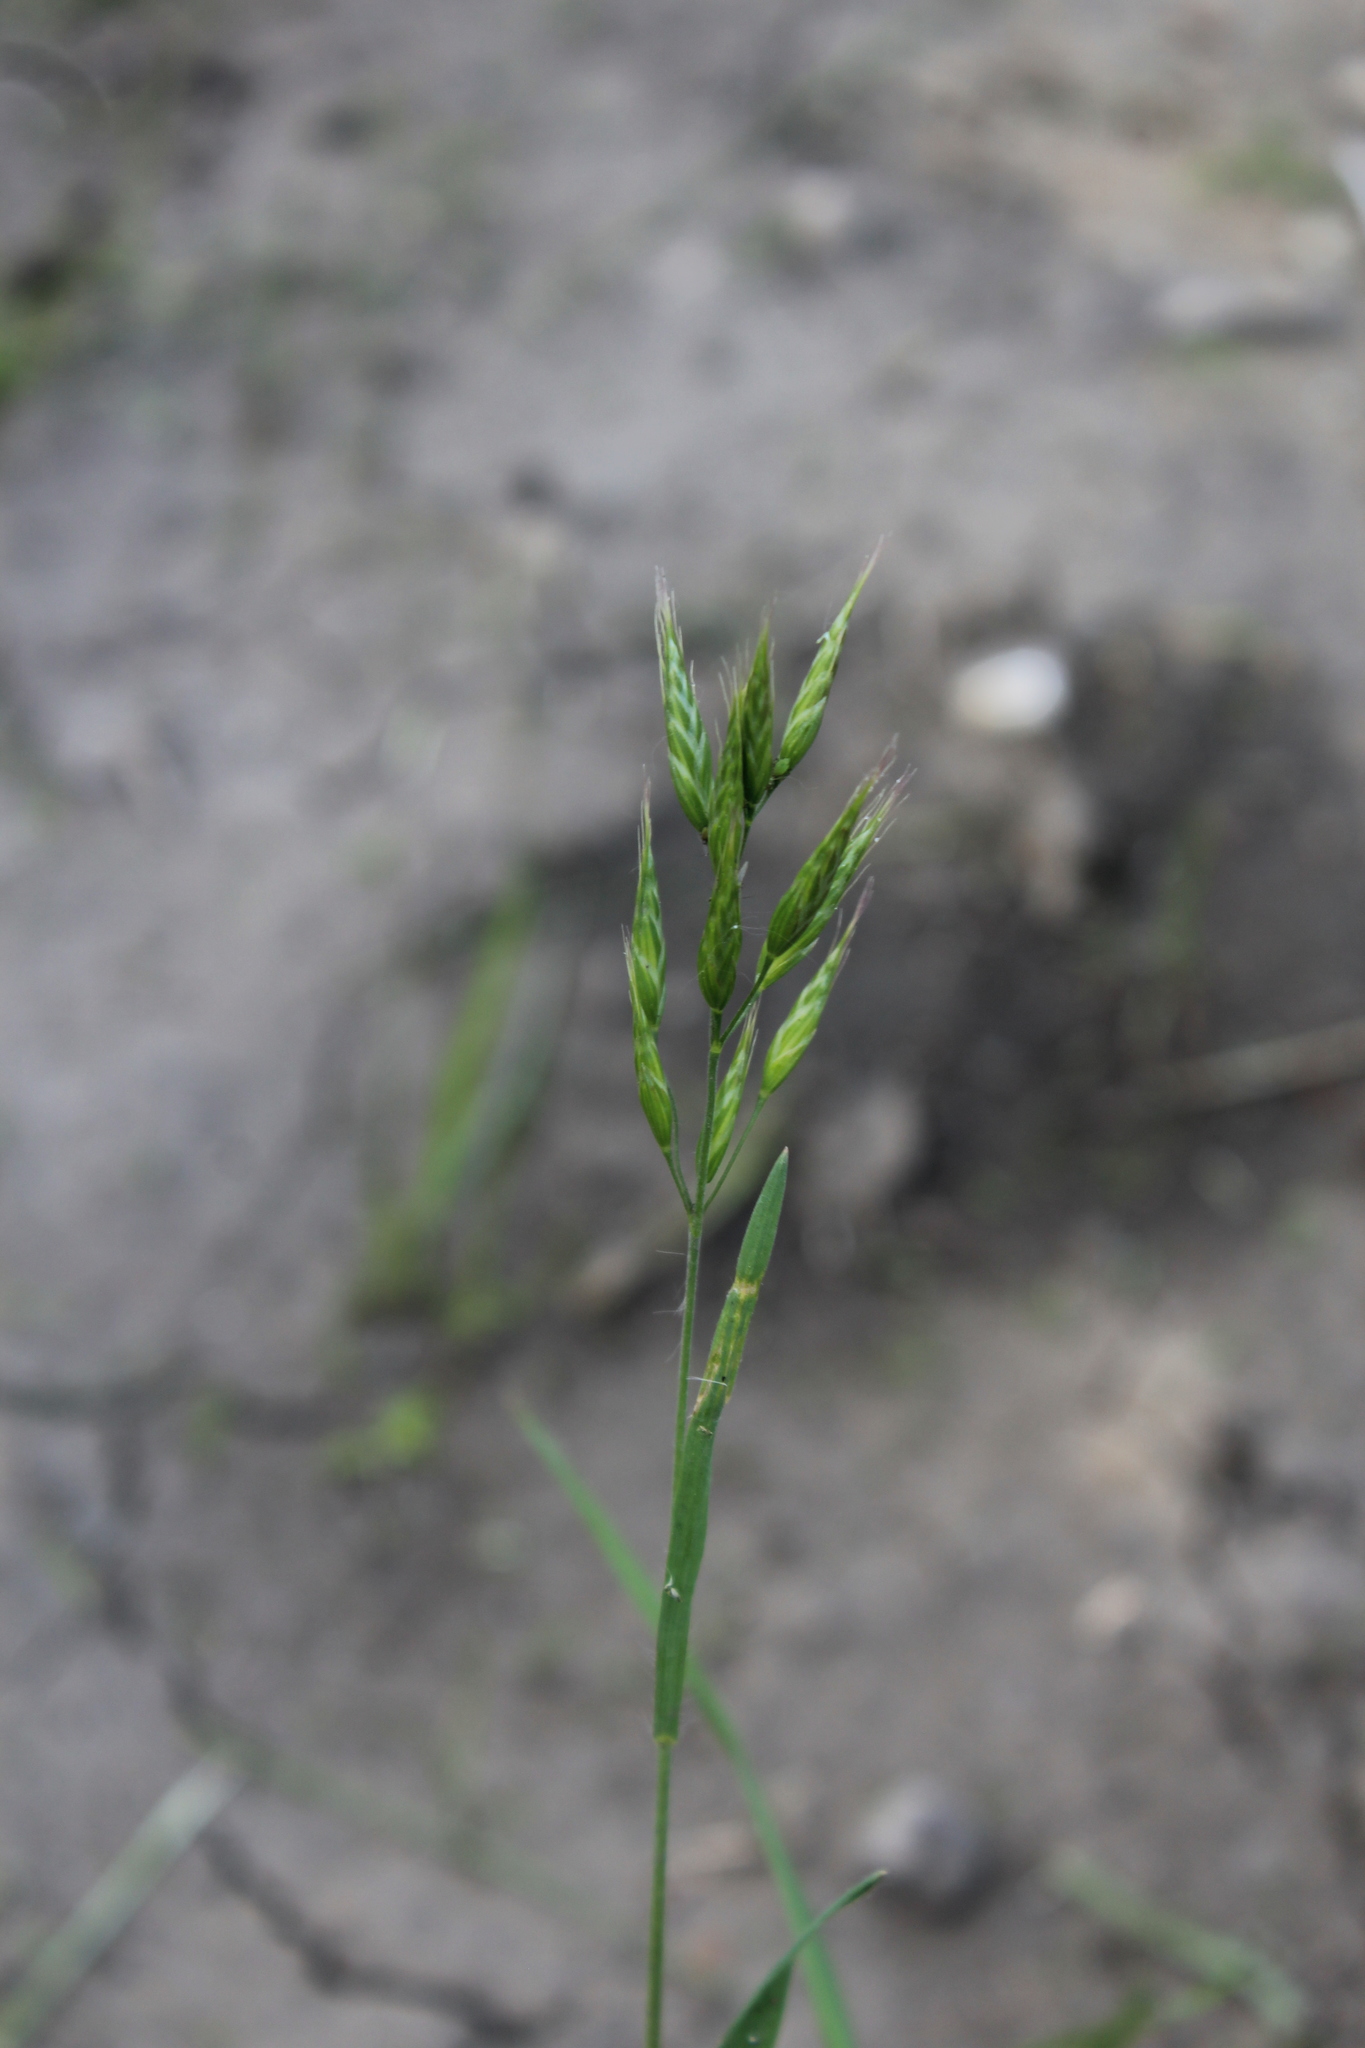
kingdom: Plantae
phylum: Tracheophyta
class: Liliopsida
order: Poales
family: Poaceae
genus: Bromus
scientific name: Bromus hordeaceus
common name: Soft brome
